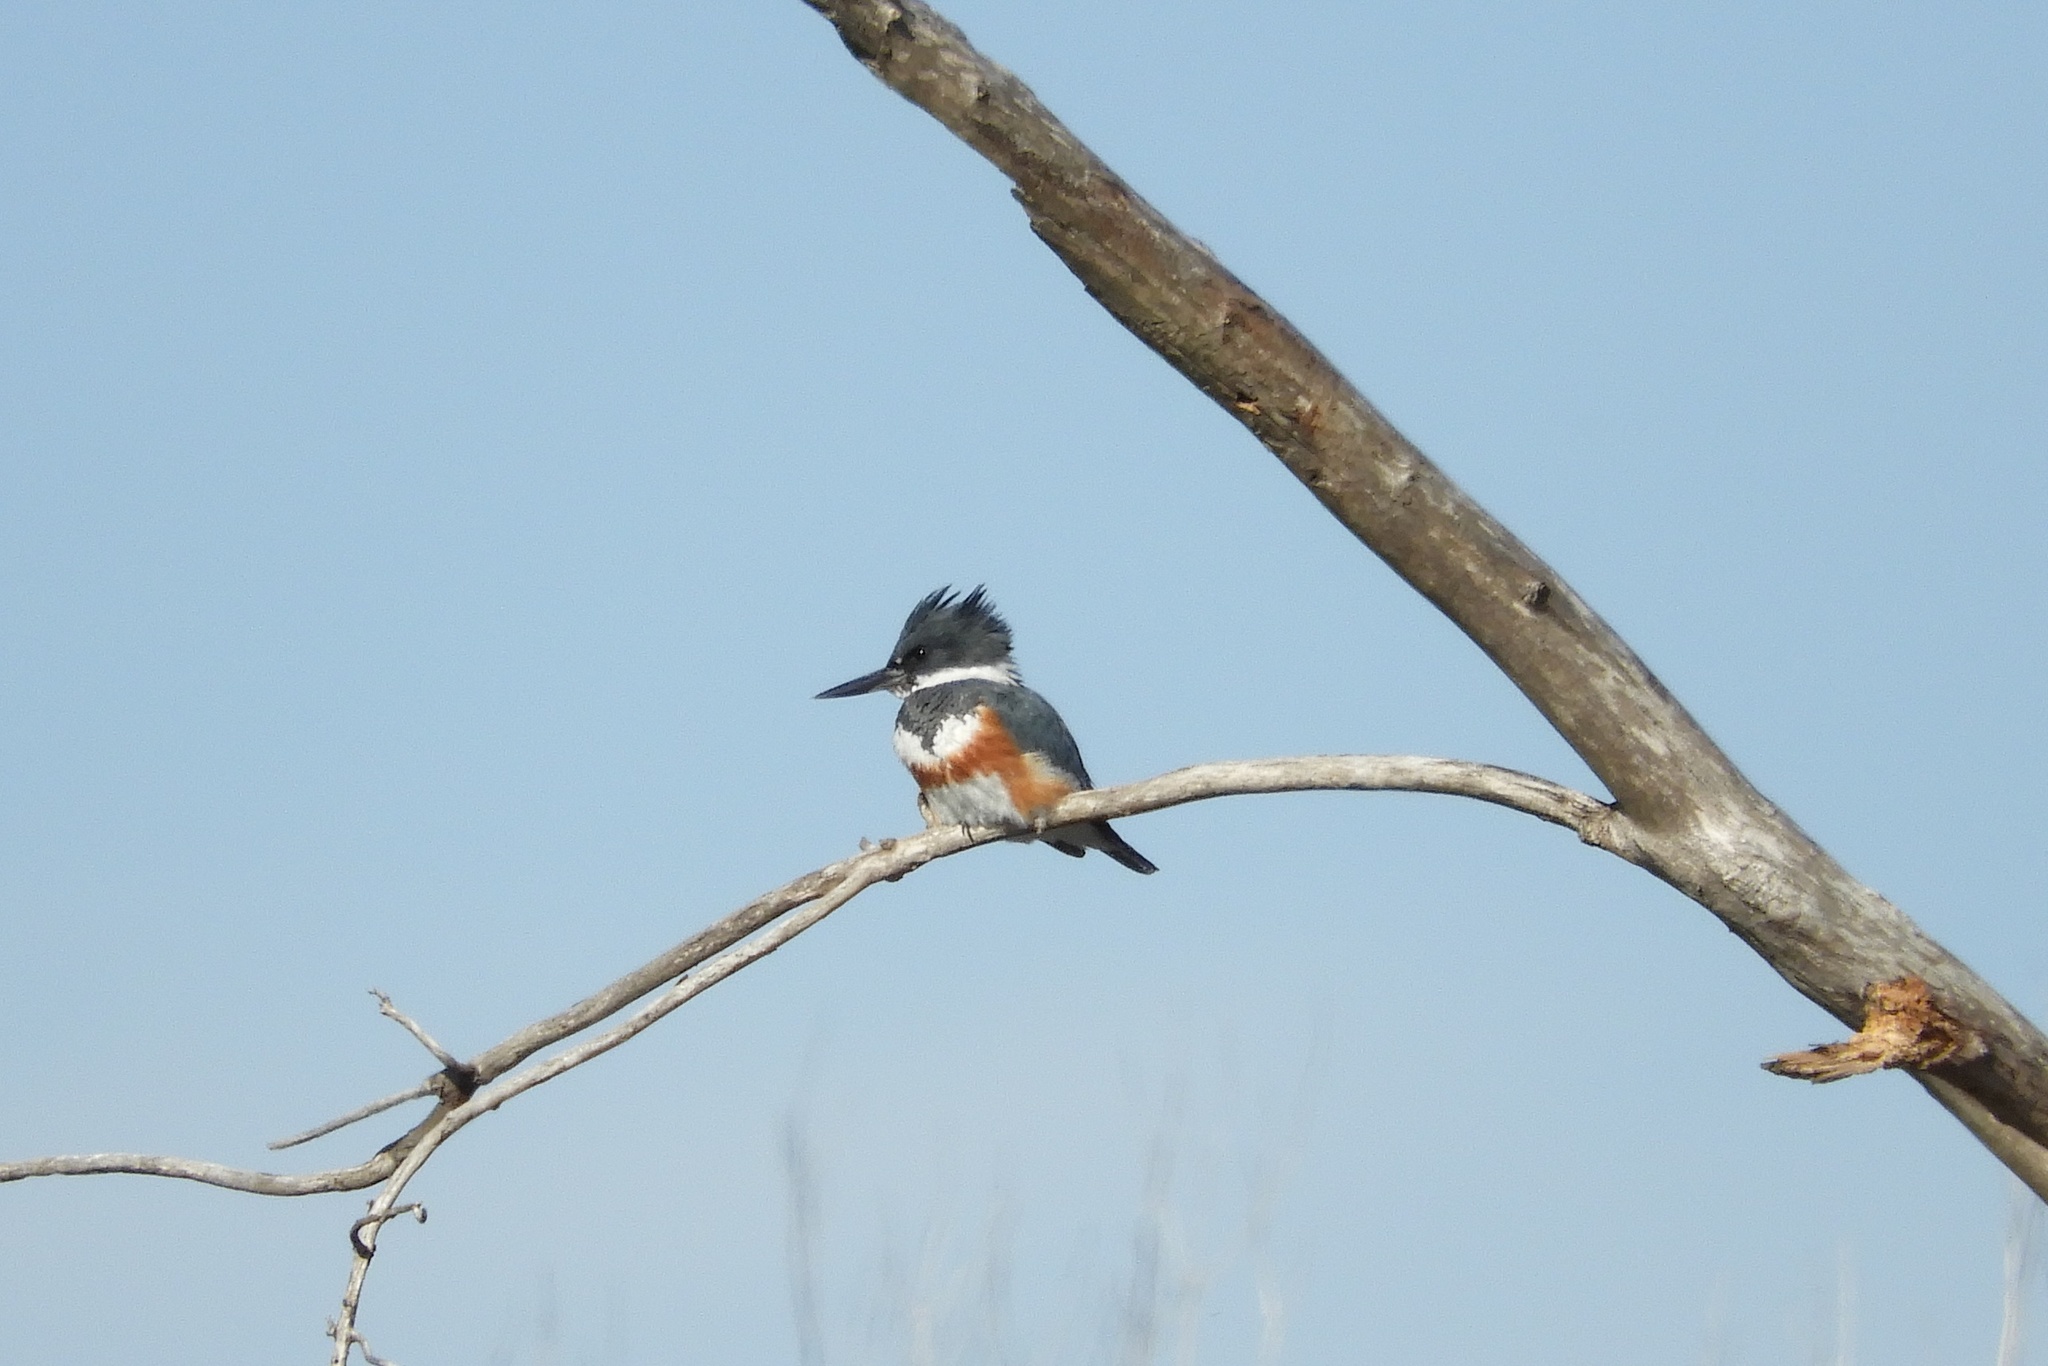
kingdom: Animalia
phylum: Chordata
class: Aves
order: Coraciiformes
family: Alcedinidae
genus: Megaceryle
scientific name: Megaceryle alcyon
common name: Belted kingfisher
